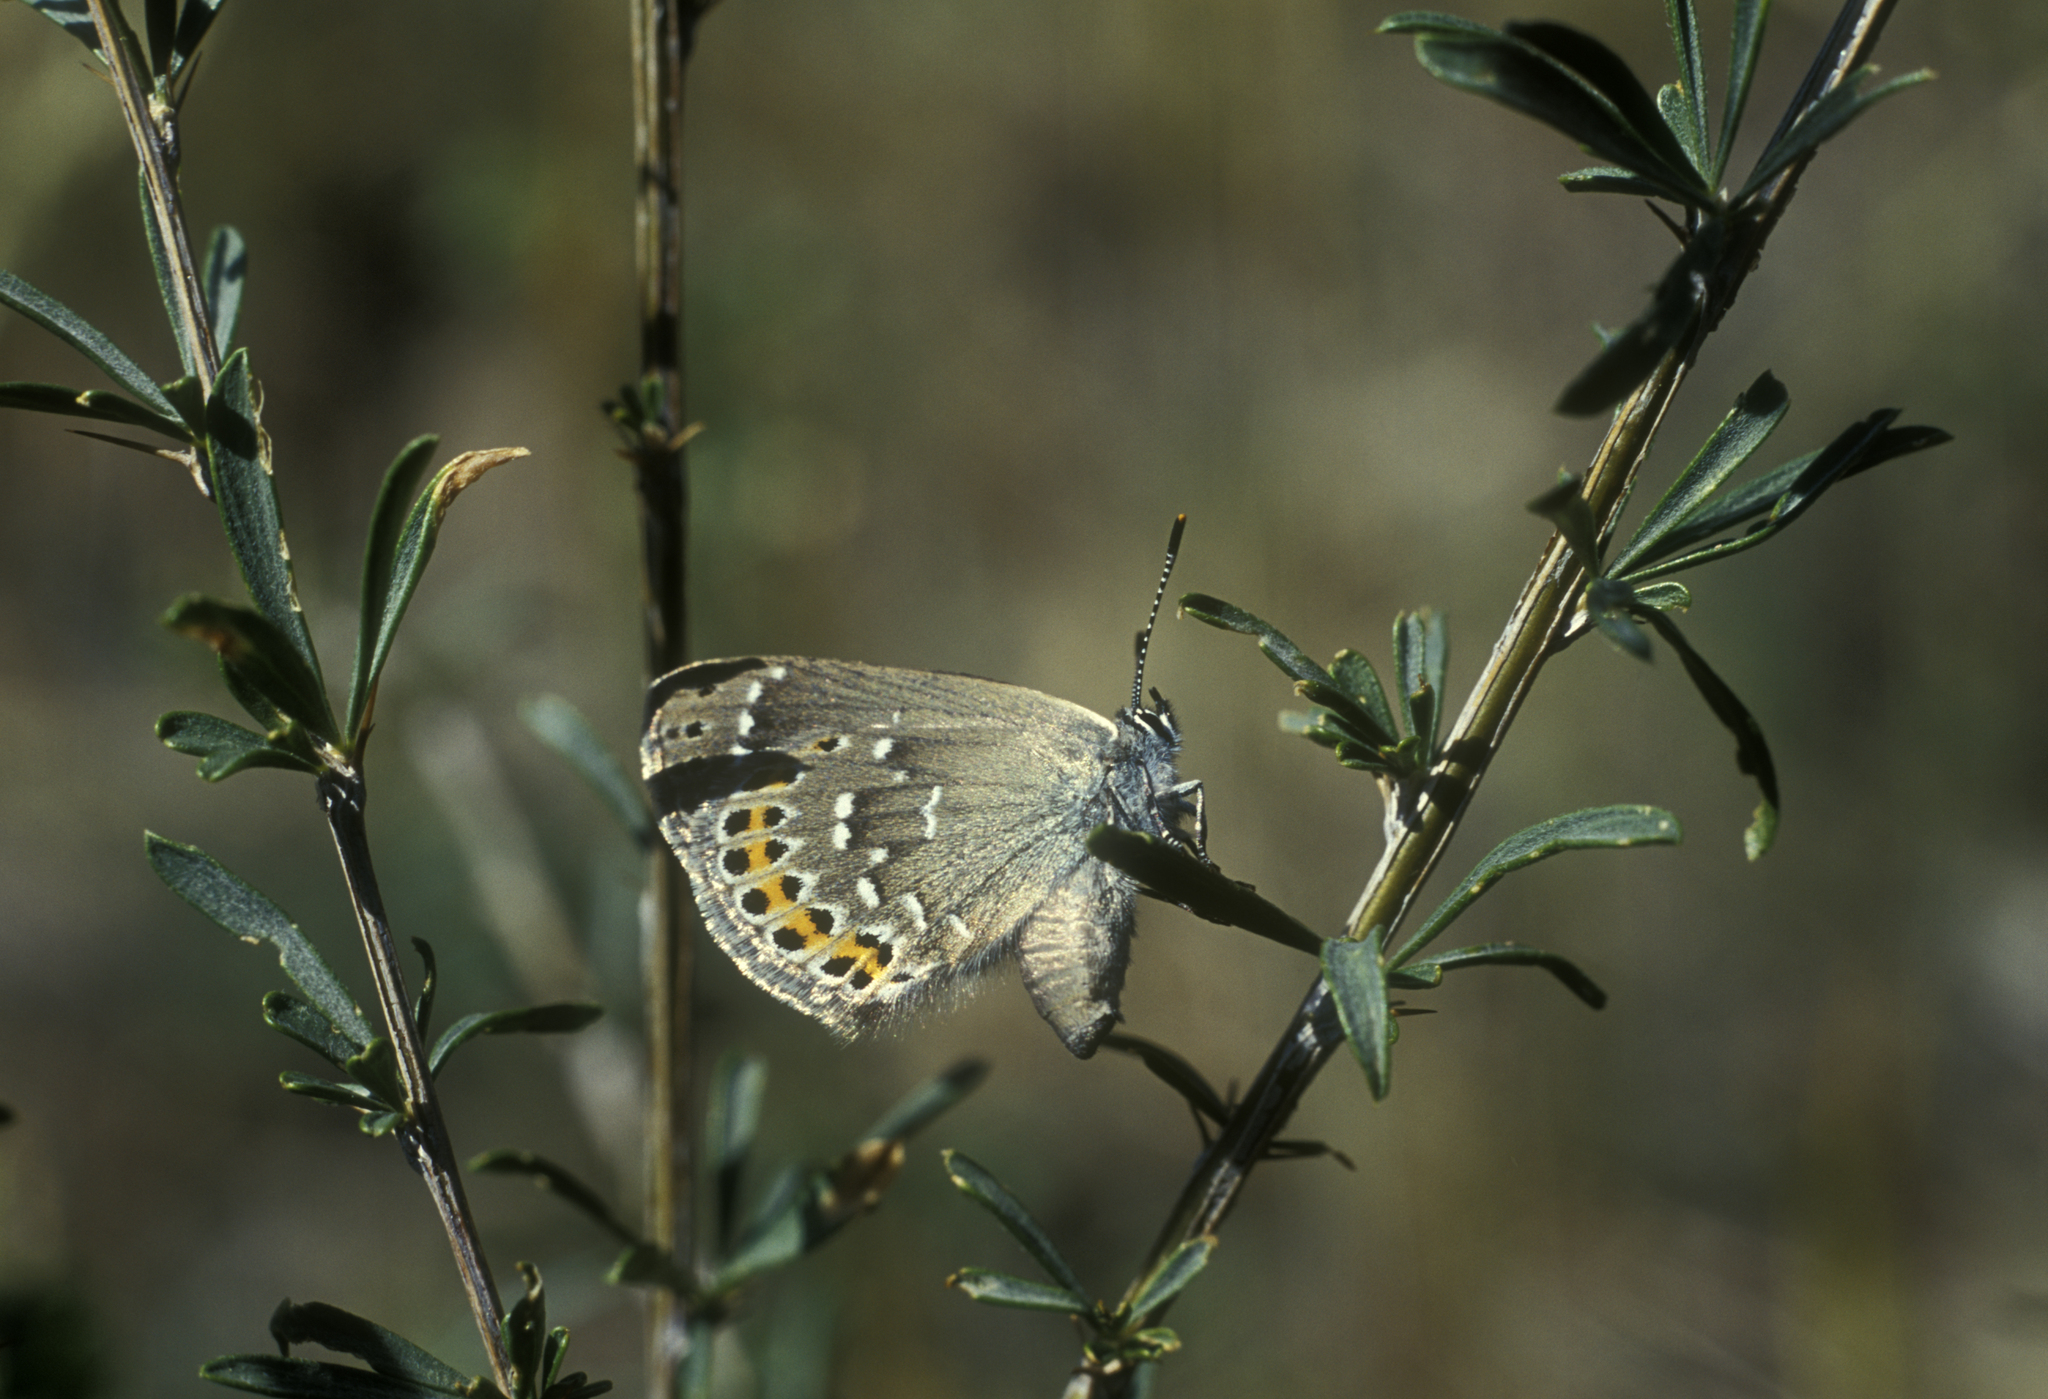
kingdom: Animalia
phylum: Arthropoda
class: Insecta
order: Lepidoptera
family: Lycaenidae
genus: Neolycaena
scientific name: Neolycaena
